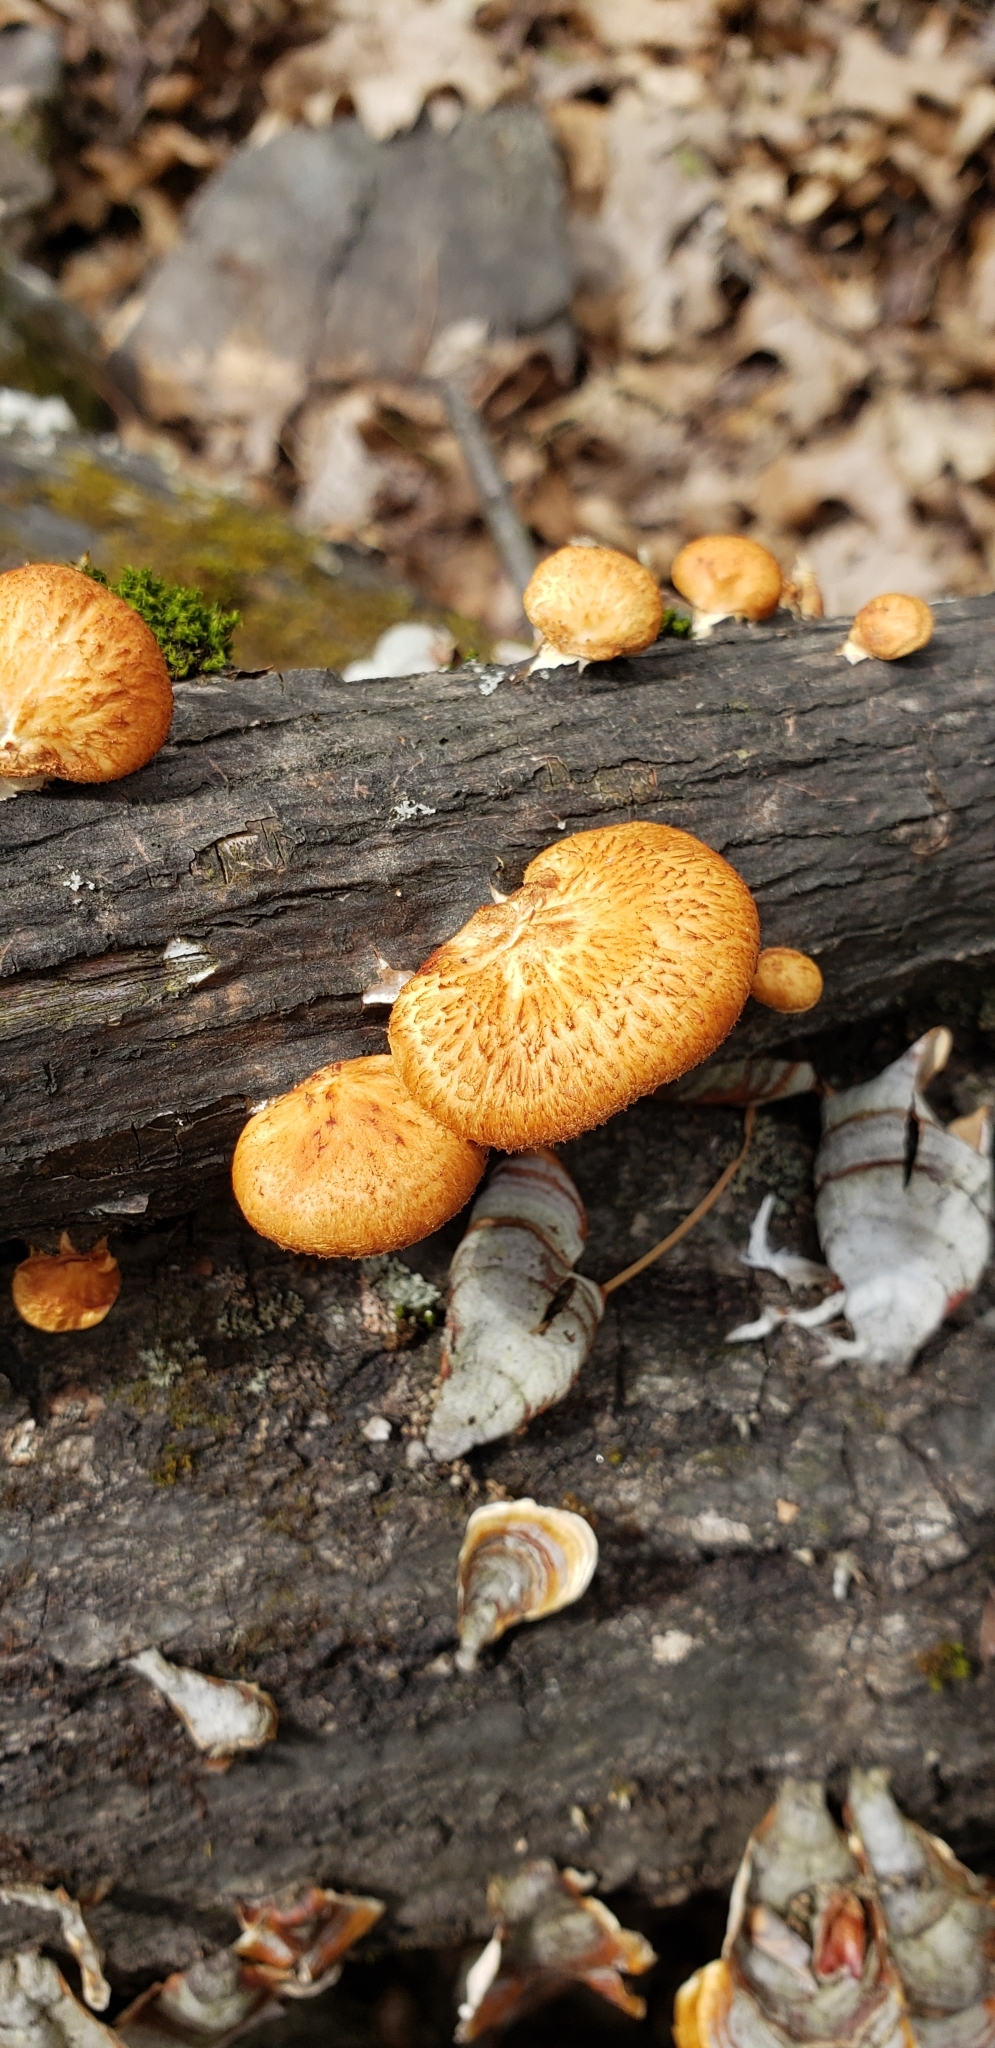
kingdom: Fungi
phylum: Basidiomycota
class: Agaricomycetes
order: Polyporales
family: Polyporaceae
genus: Neofavolus
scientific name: Neofavolus alveolaris
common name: Hexagonal-pored polypore
